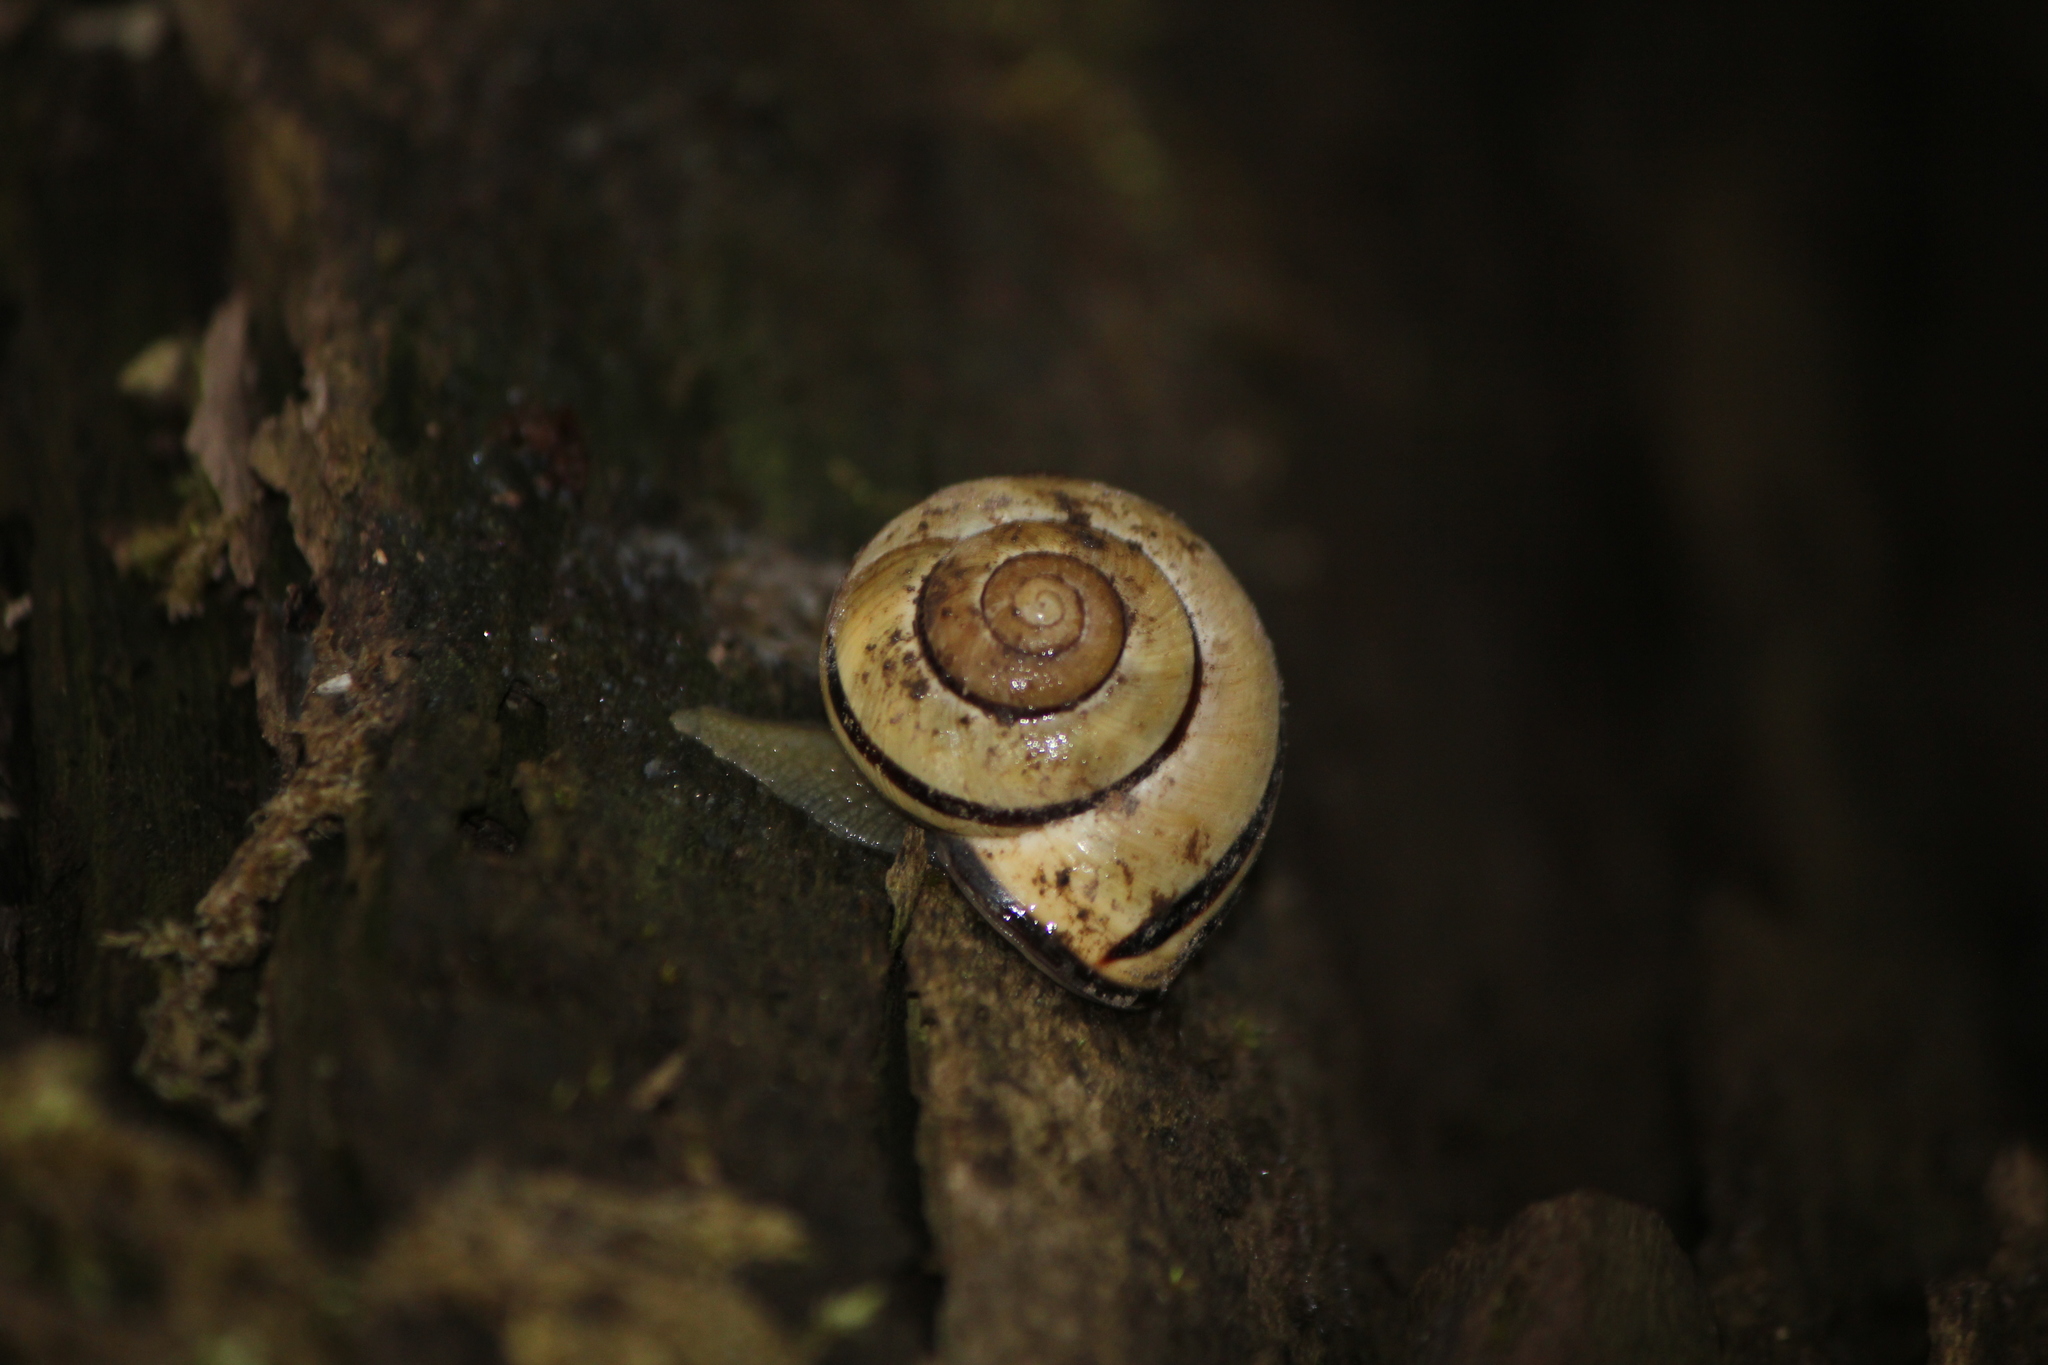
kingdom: Animalia
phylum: Mollusca
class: Gastropoda
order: Stylommatophora
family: Helicidae
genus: Cepaea
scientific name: Cepaea nemoralis
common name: Grovesnail
